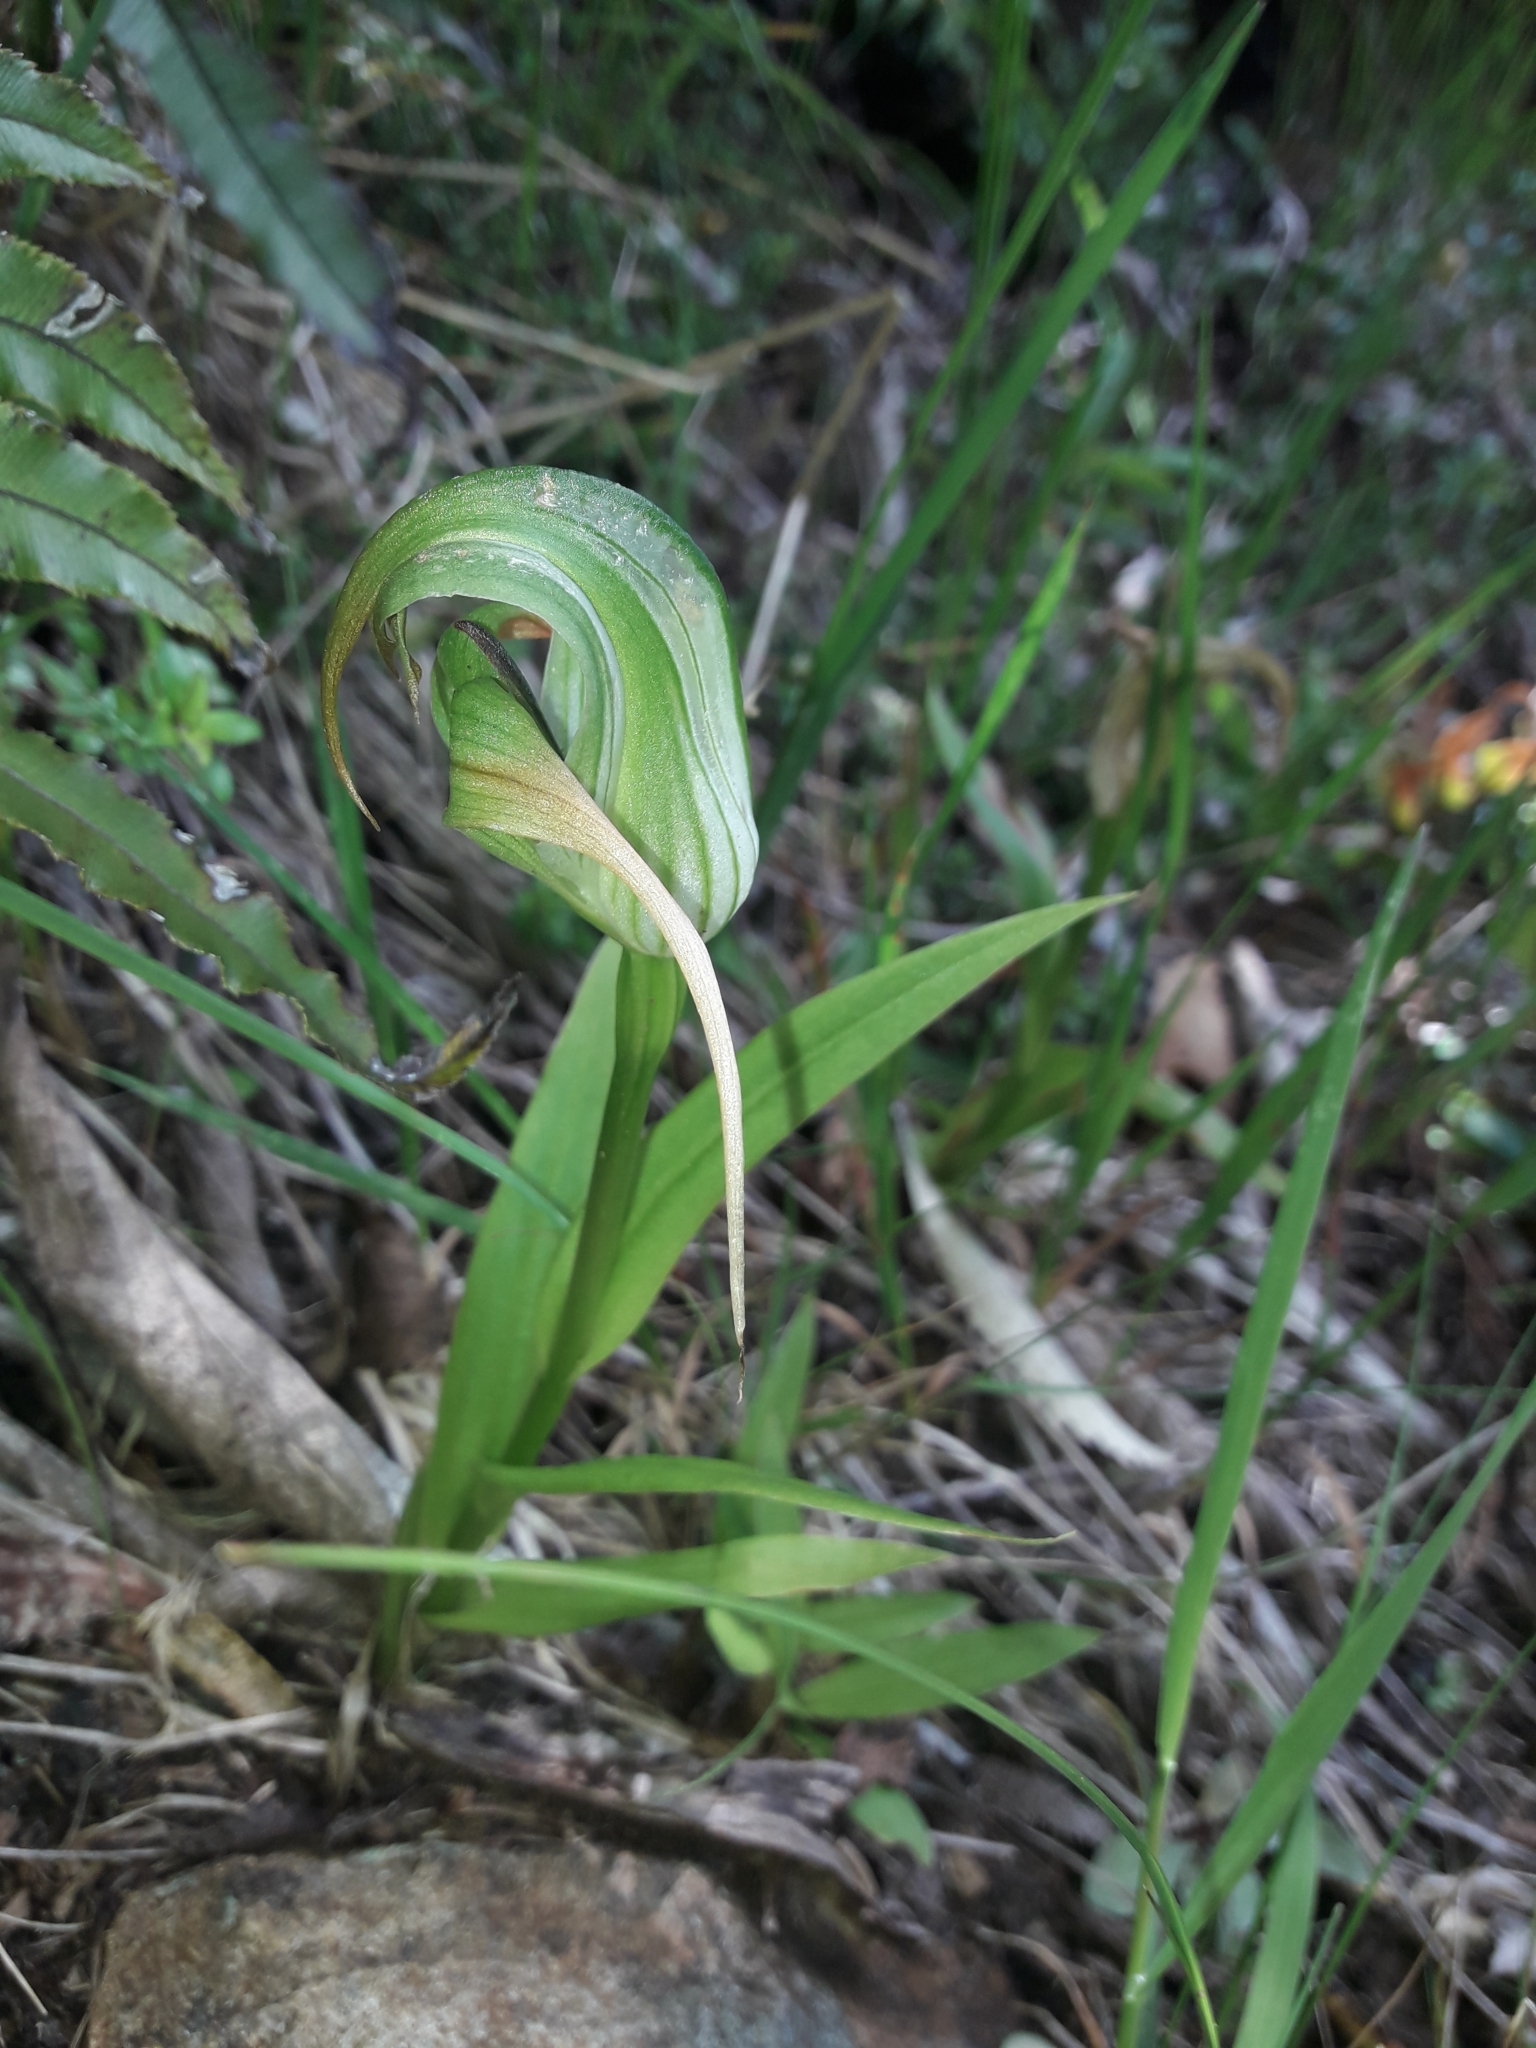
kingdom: Plantae
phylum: Tracheophyta
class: Liliopsida
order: Asparagales
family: Orchidaceae
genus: Pterostylis
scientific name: Pterostylis patens
